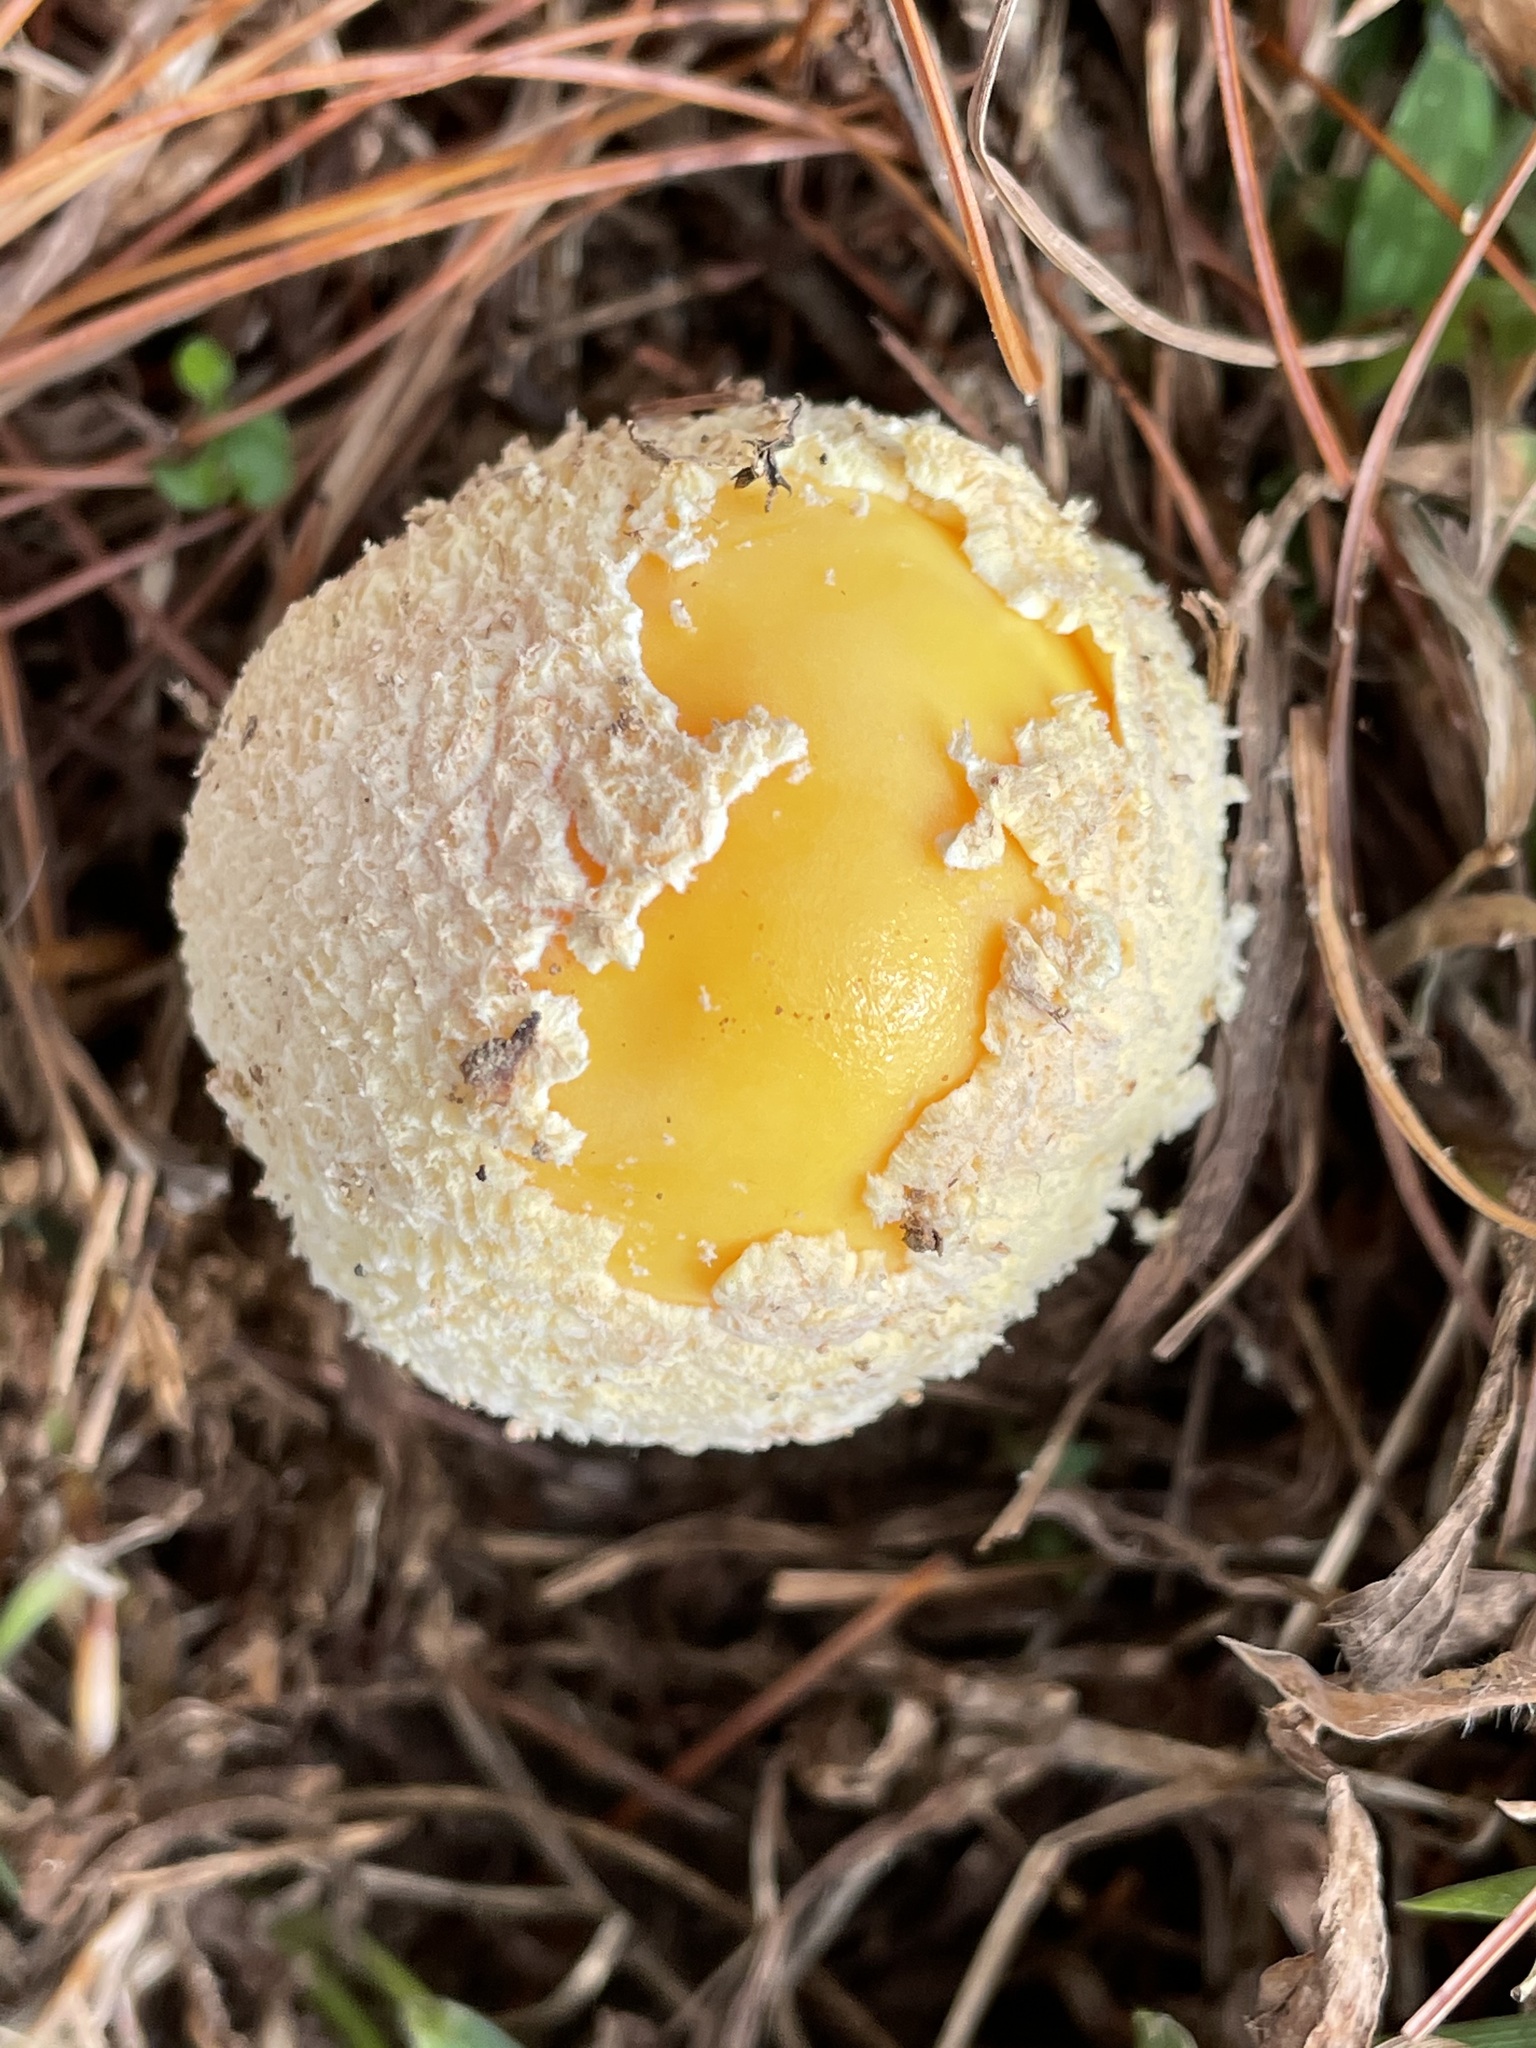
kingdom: Fungi
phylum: Basidiomycota
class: Agaricomycetes
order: Agaricales
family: Amanitaceae
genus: Amanita
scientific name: Amanita muscaria
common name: Fly agaric
